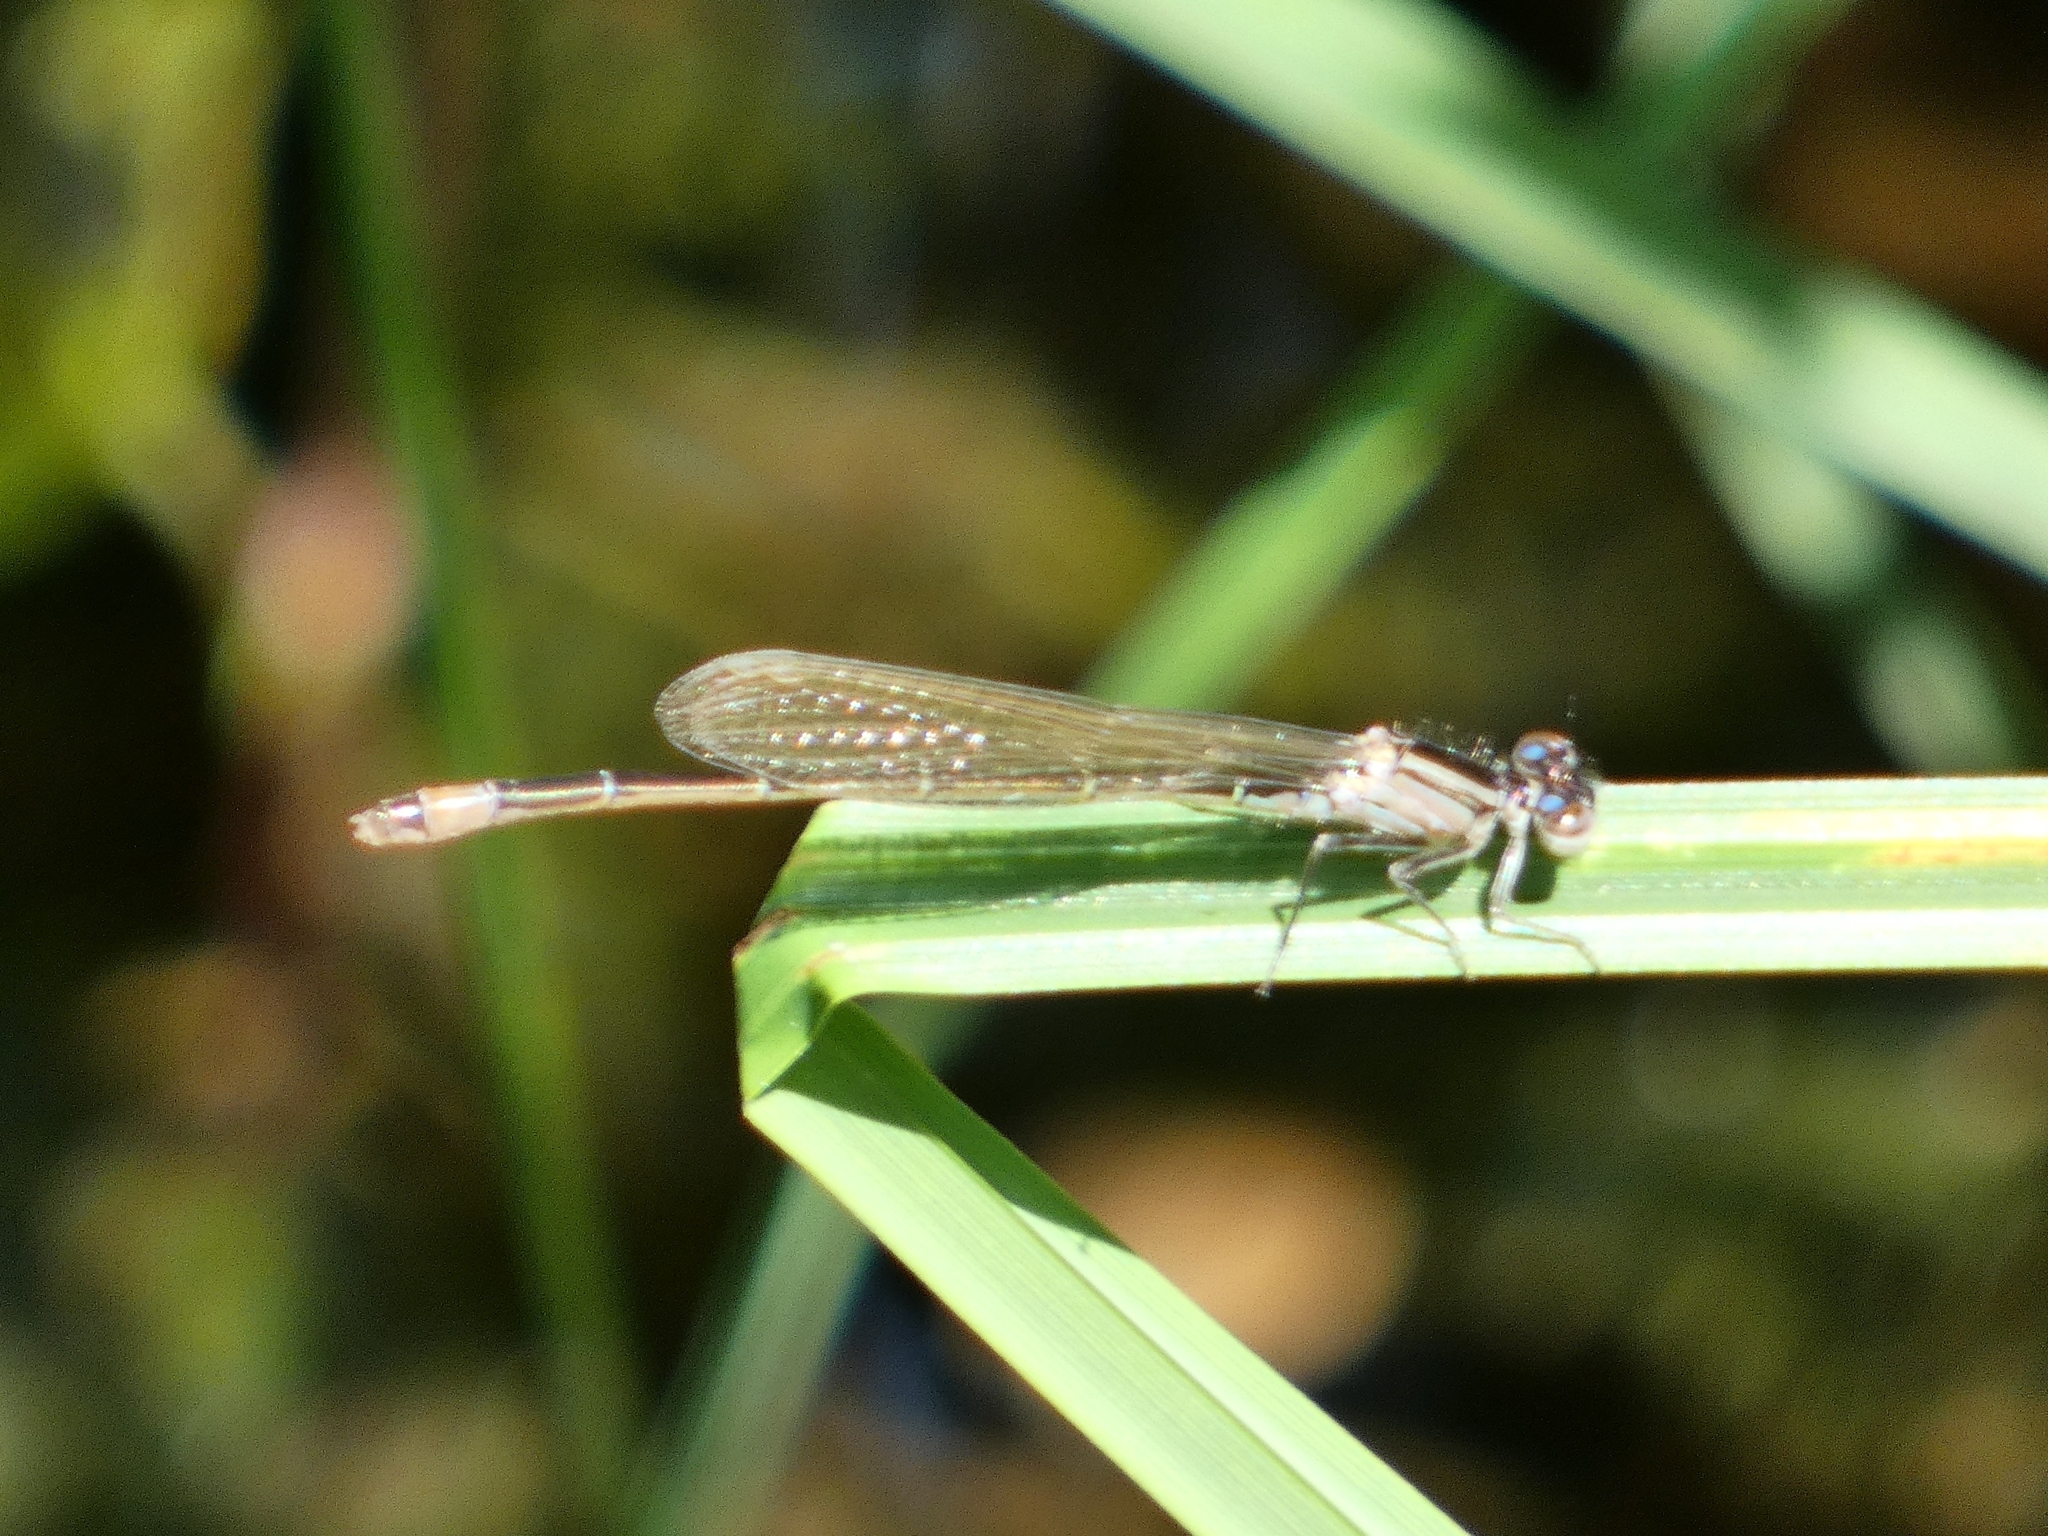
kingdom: Animalia
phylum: Arthropoda
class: Insecta
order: Odonata
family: Coenagrionidae
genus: Ischnura
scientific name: Ischnura elegans
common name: Blue-tailed damselfly
